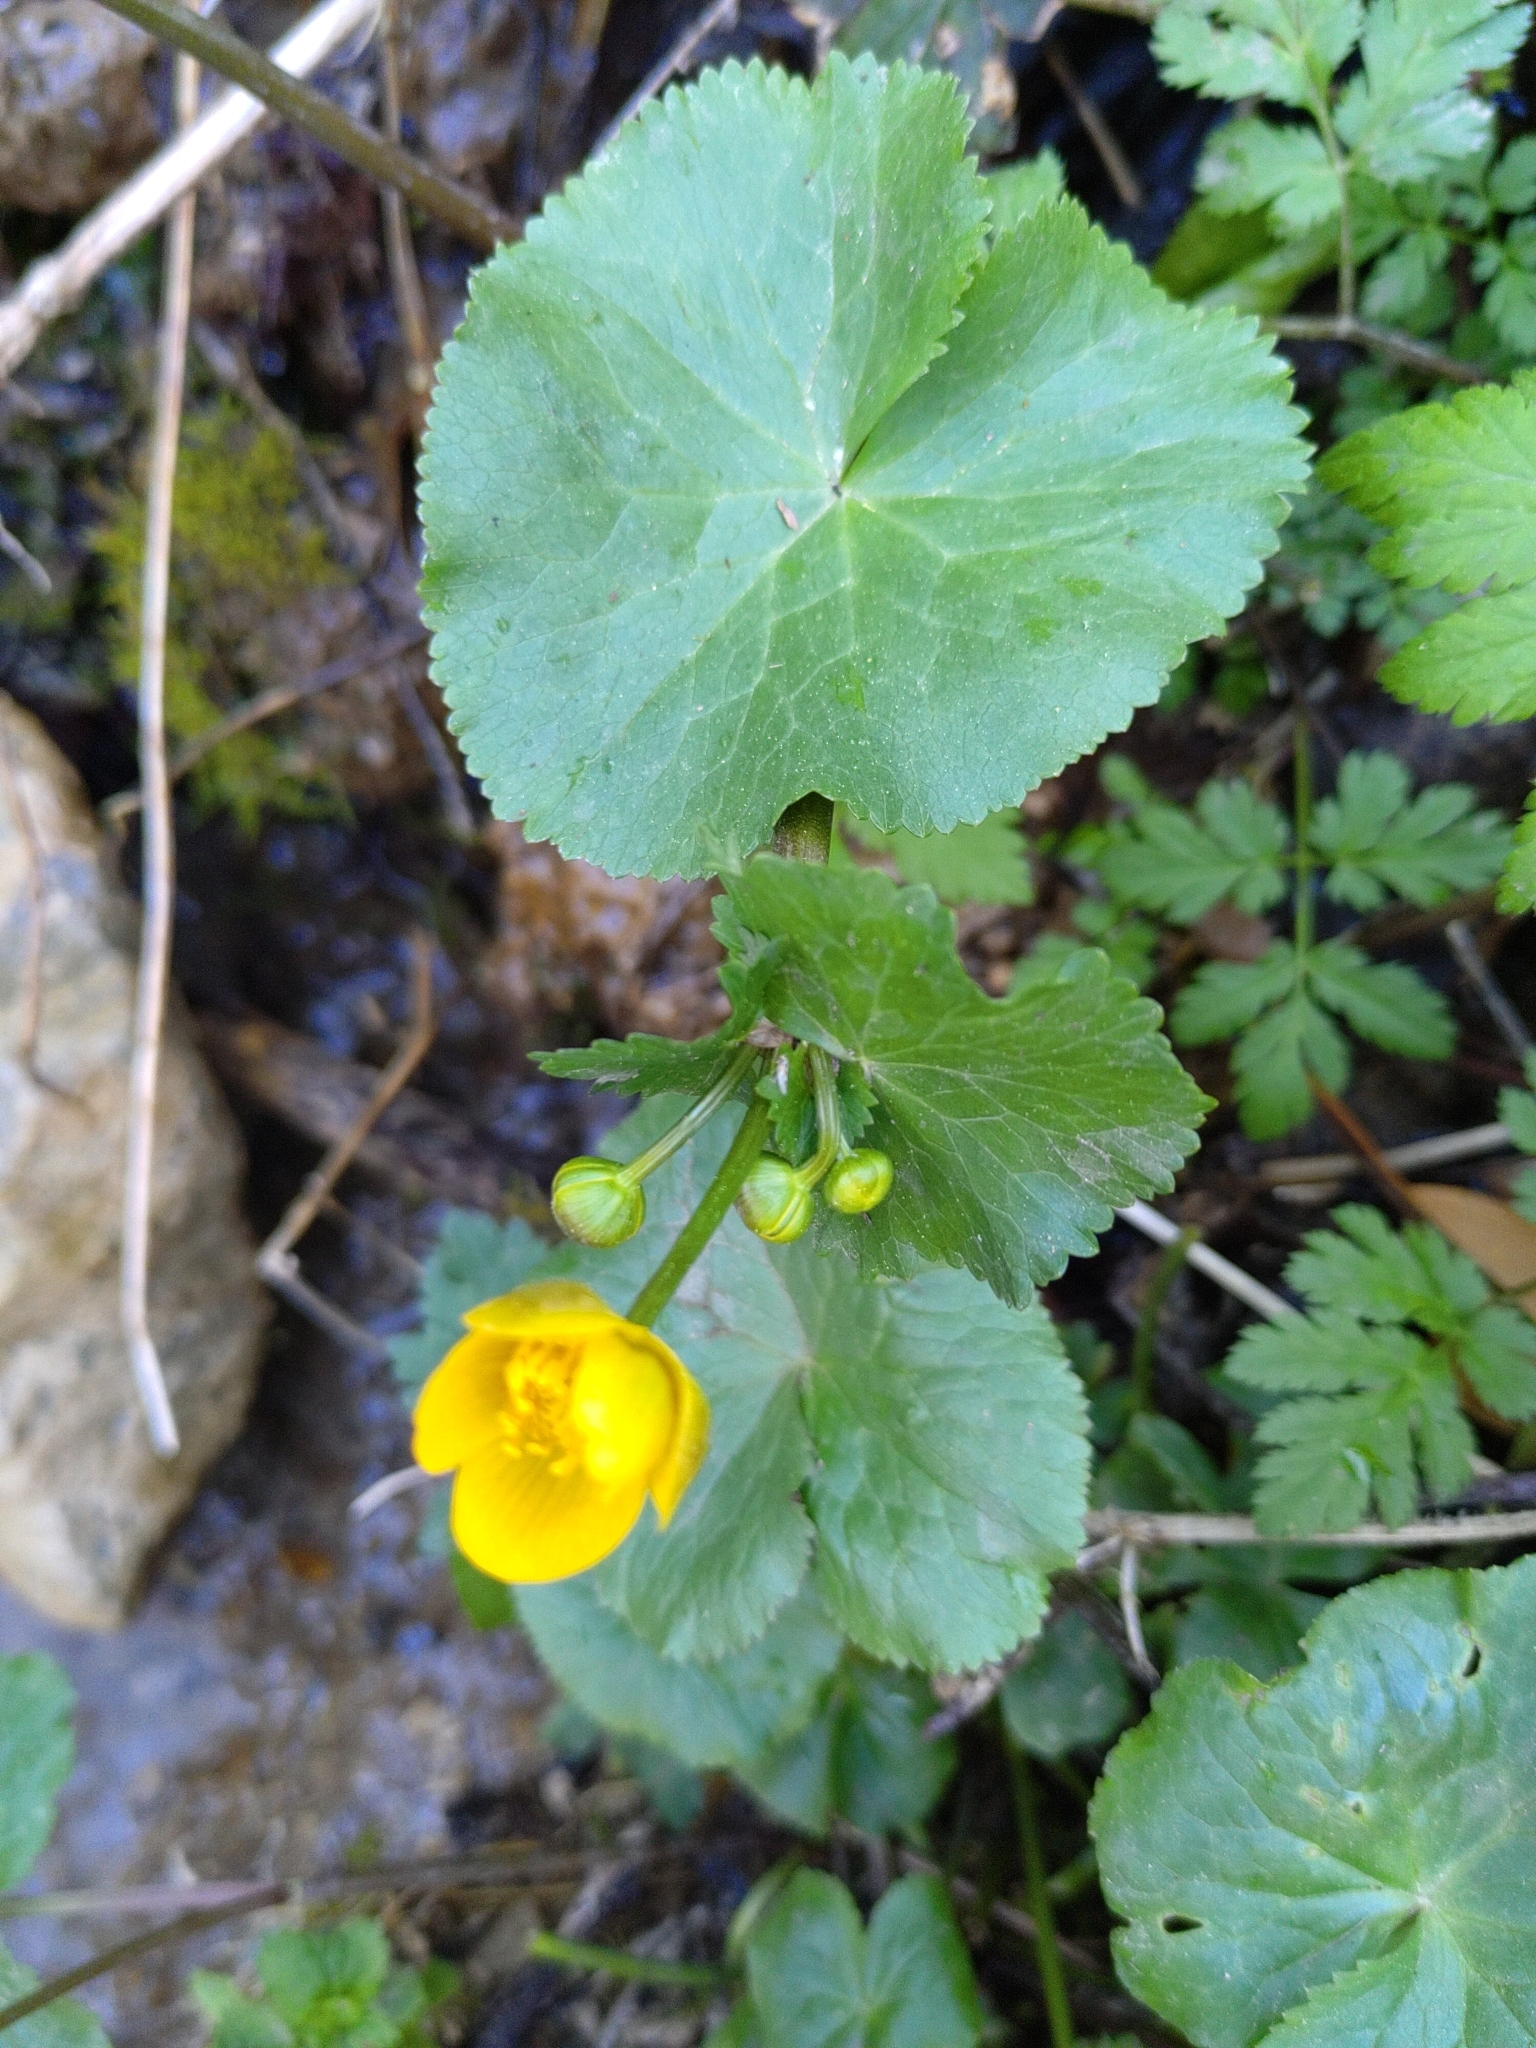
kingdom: Plantae
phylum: Tracheophyta
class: Magnoliopsida
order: Ranunculales
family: Ranunculaceae
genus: Caltha
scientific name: Caltha palustris
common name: Marsh marigold
